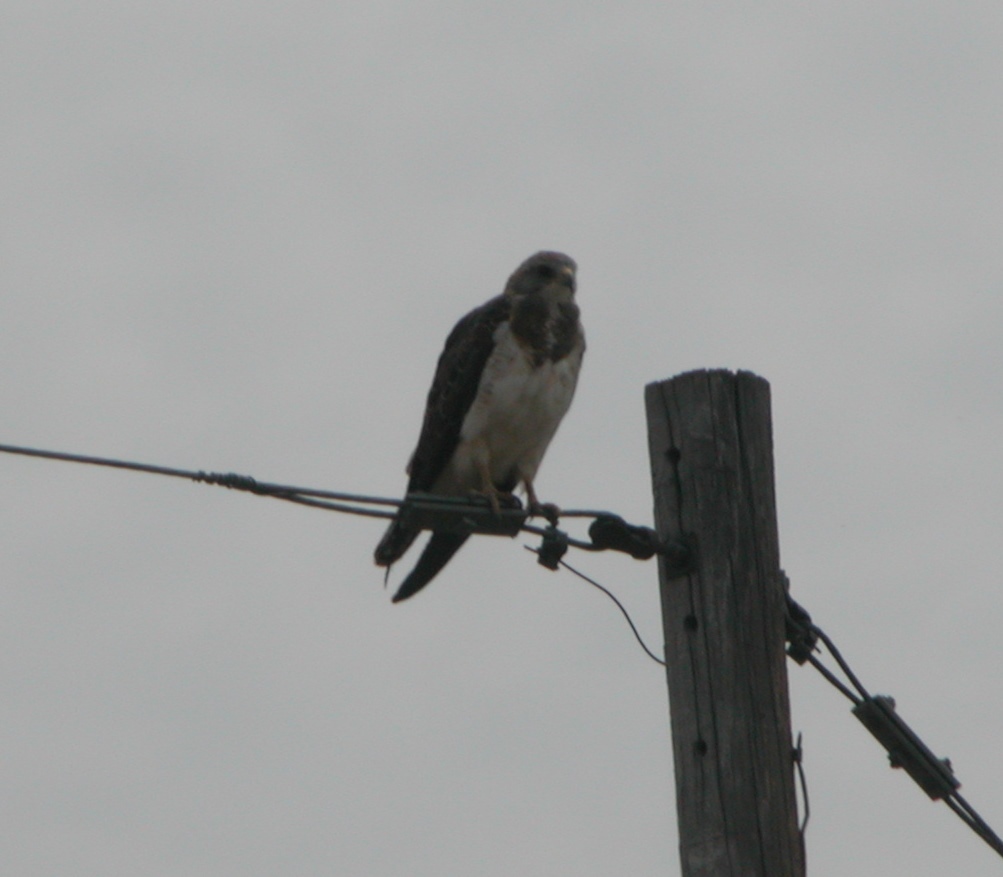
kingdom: Animalia
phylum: Chordata
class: Aves
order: Accipitriformes
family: Accipitridae
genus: Buteo
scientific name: Buteo swainsoni
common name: Swainson's hawk
